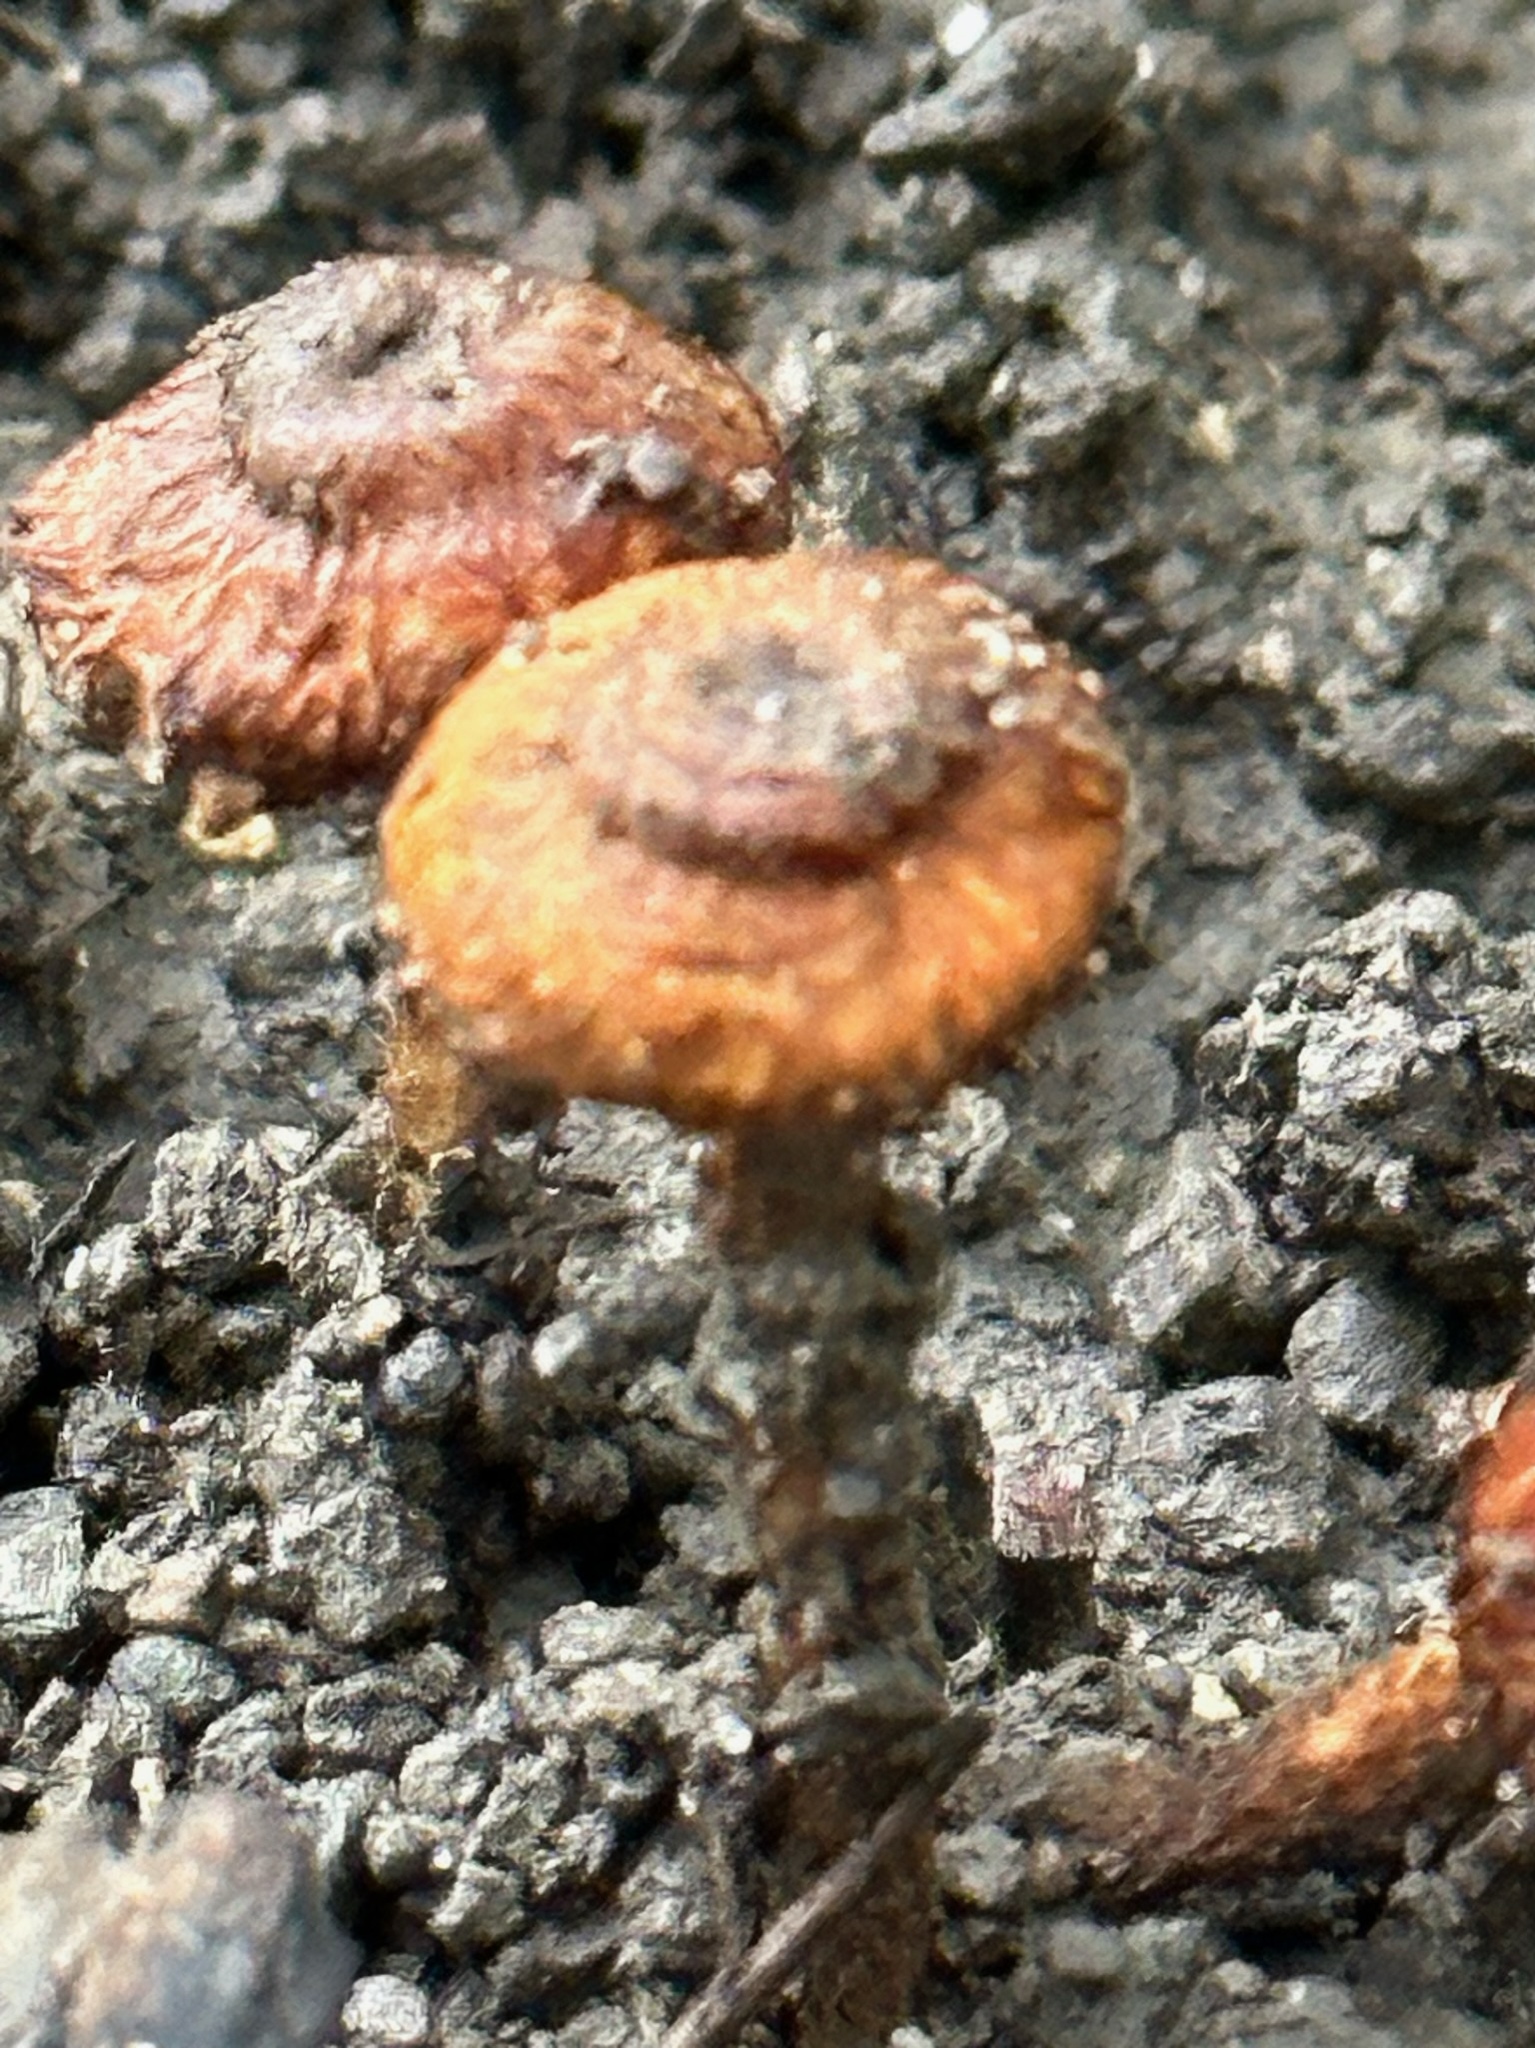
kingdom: Fungi
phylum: Basidiomycota
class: Agaricomycetes
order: Agaricales
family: Tricholomataceae
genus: Collybia
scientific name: Collybia zonata
